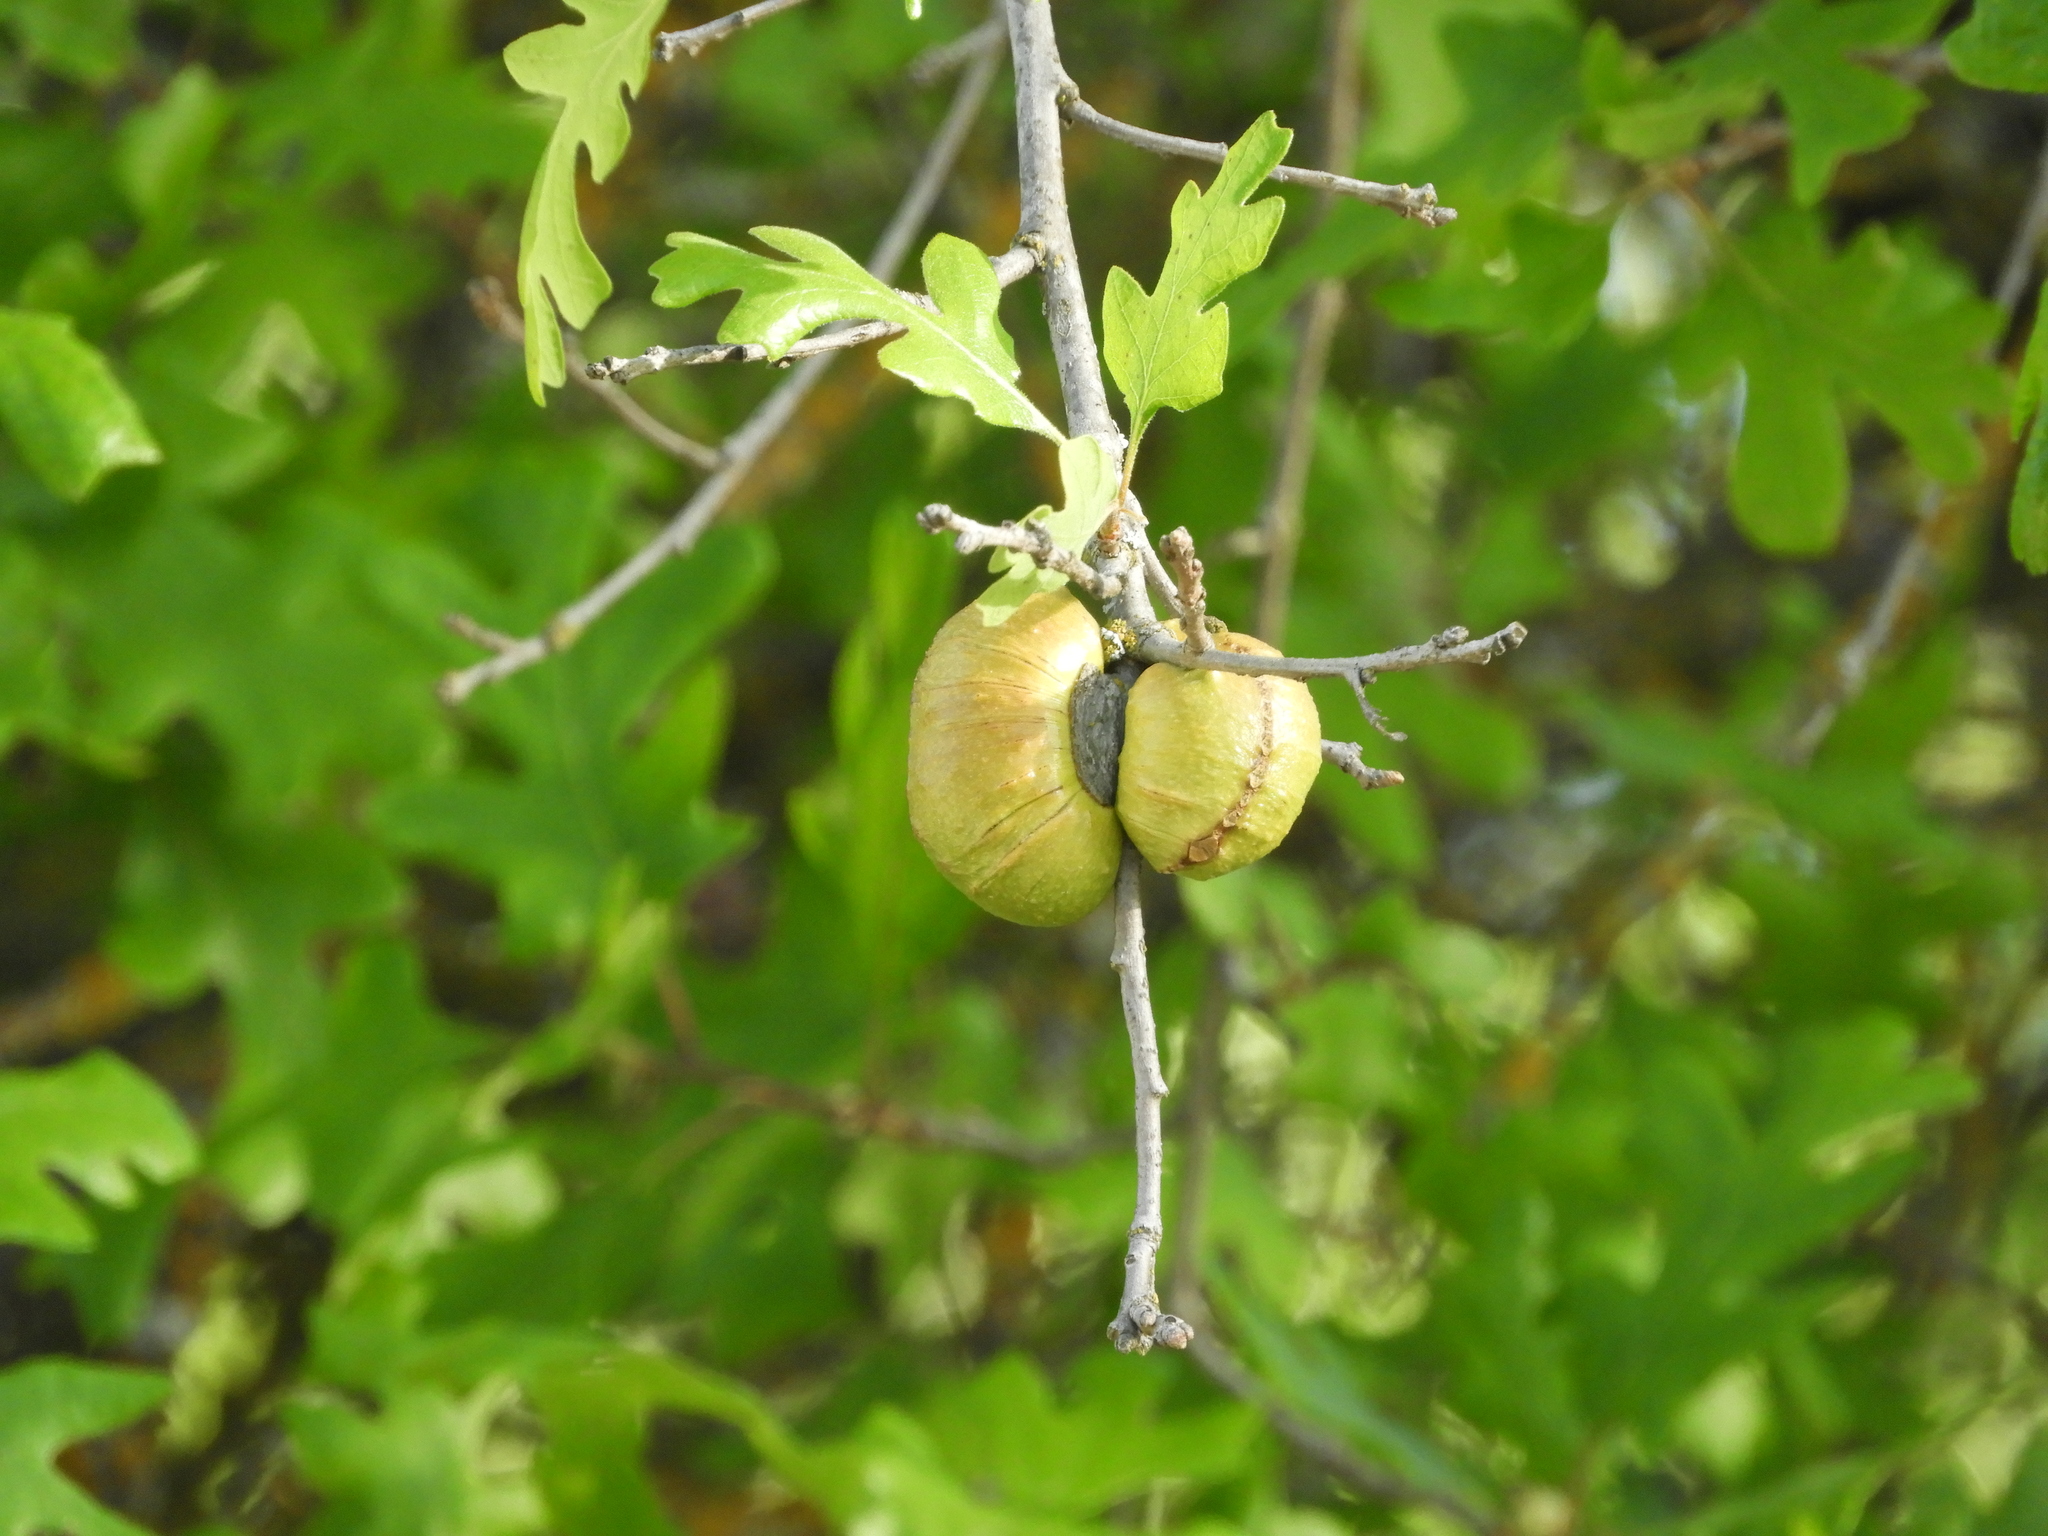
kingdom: Animalia
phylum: Arthropoda
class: Insecta
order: Hymenoptera
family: Cynipidae
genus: Andricus
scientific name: Andricus quercuscalifornicus
